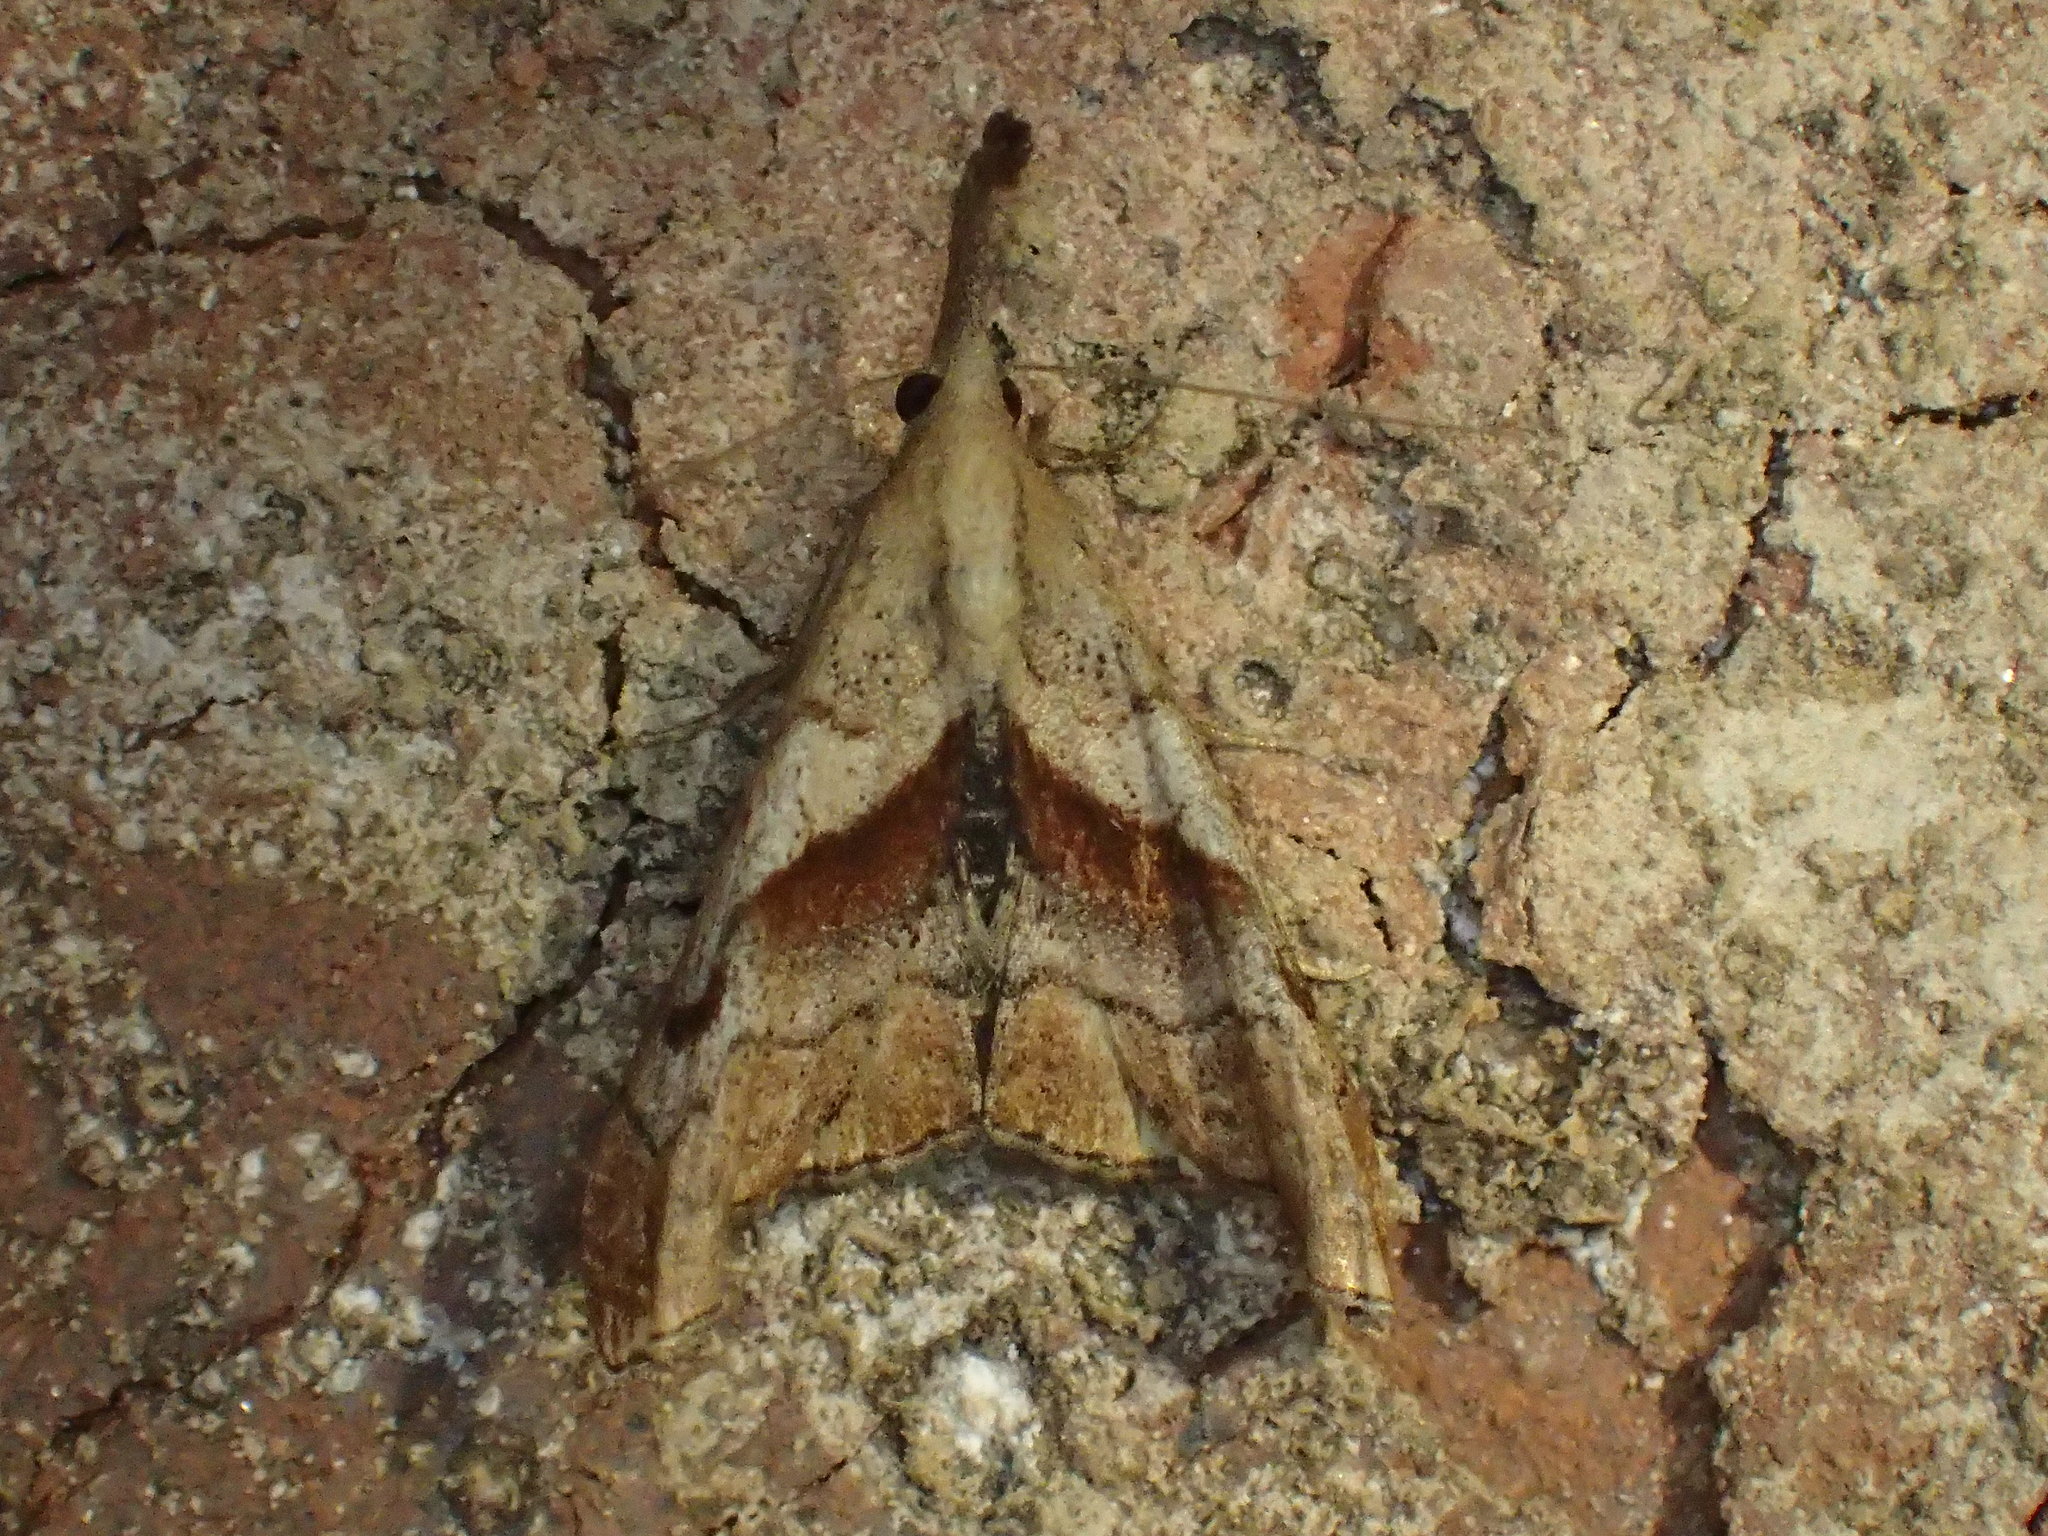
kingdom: Animalia
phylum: Arthropoda
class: Insecta
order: Lepidoptera
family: Erebidae
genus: Palthis
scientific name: Palthis angulalis
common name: Dark-spotted palthis moth
